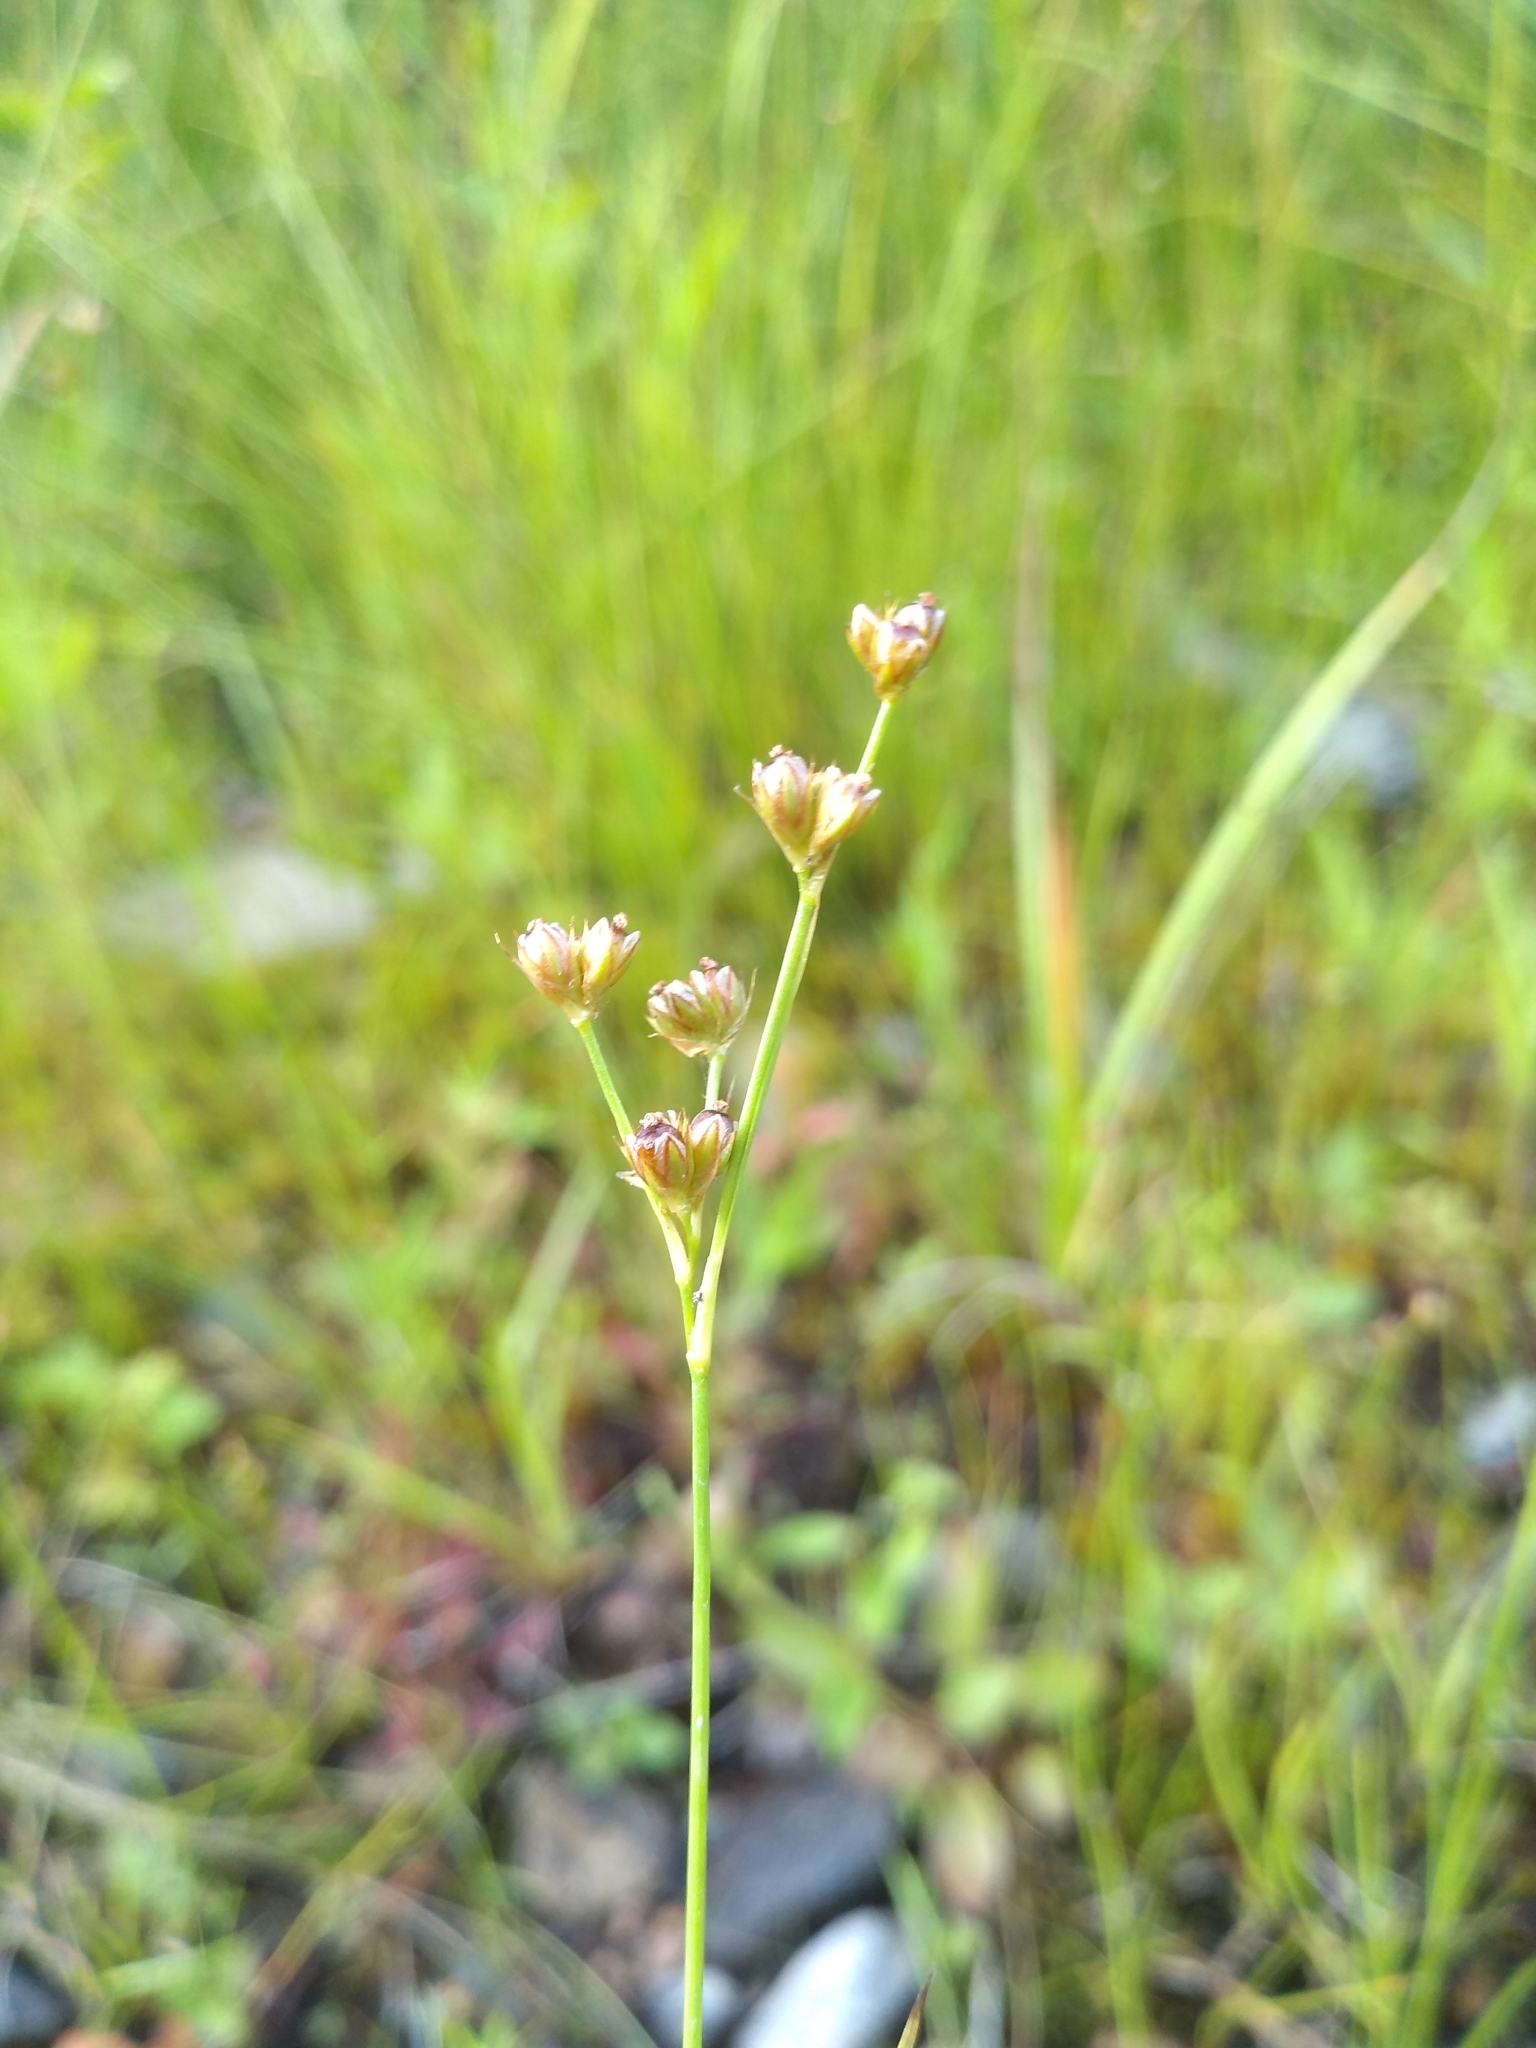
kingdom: Plantae
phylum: Tracheophyta
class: Liliopsida
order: Poales
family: Juncaceae
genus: Juncus
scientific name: Juncus marginatus
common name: Grass-leaf rush
